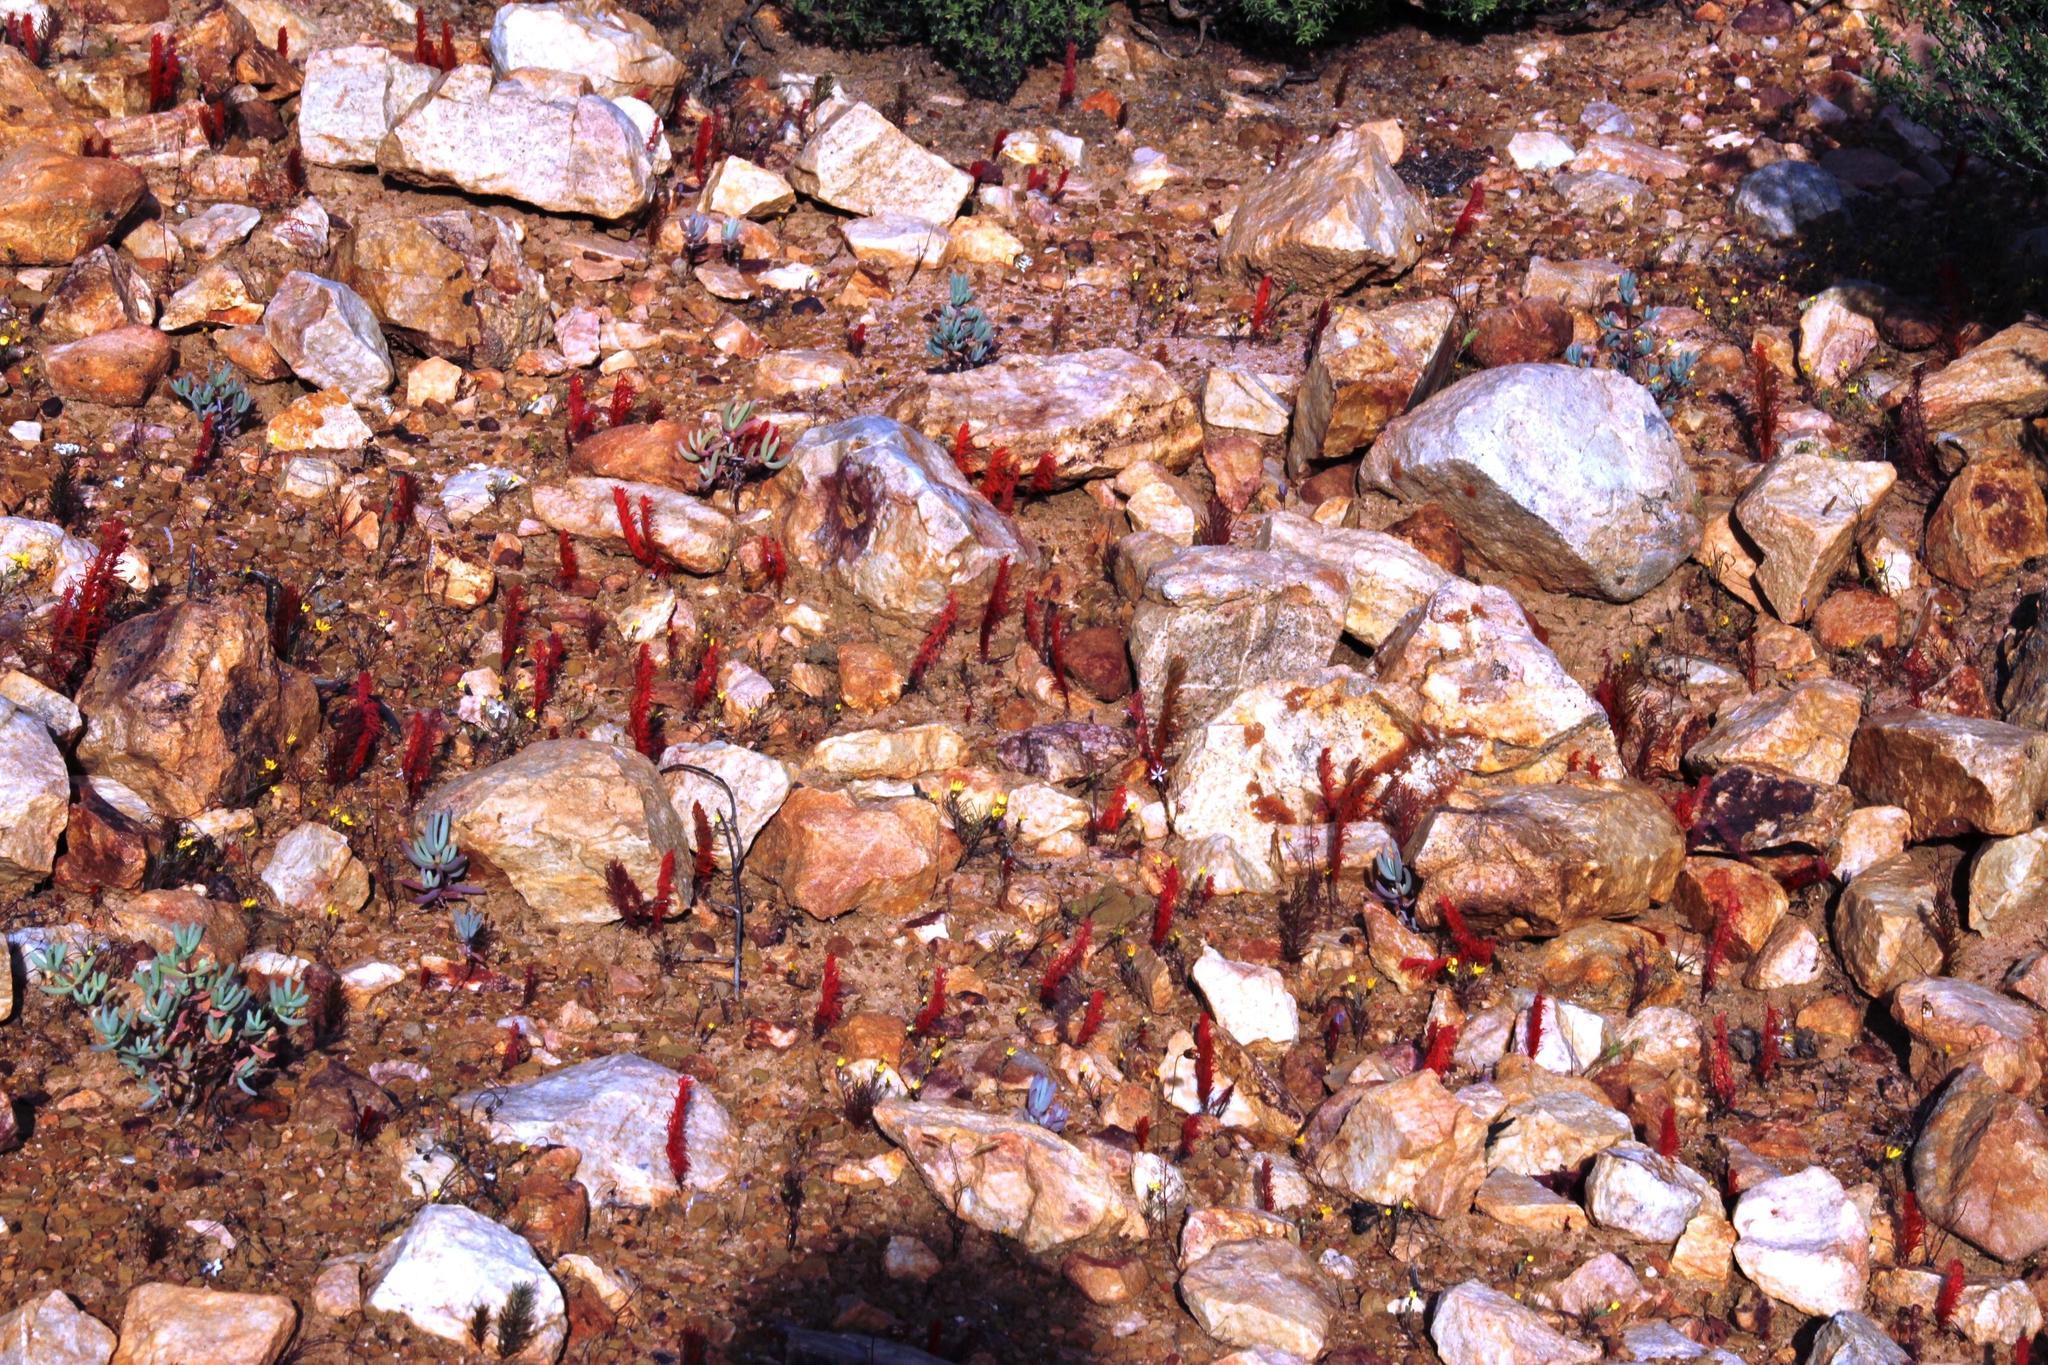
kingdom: Plantae
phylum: Tracheophyta
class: Magnoliopsida
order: Oxalidales
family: Oxalidaceae
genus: Oxalis
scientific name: Oxalis grammophylla
